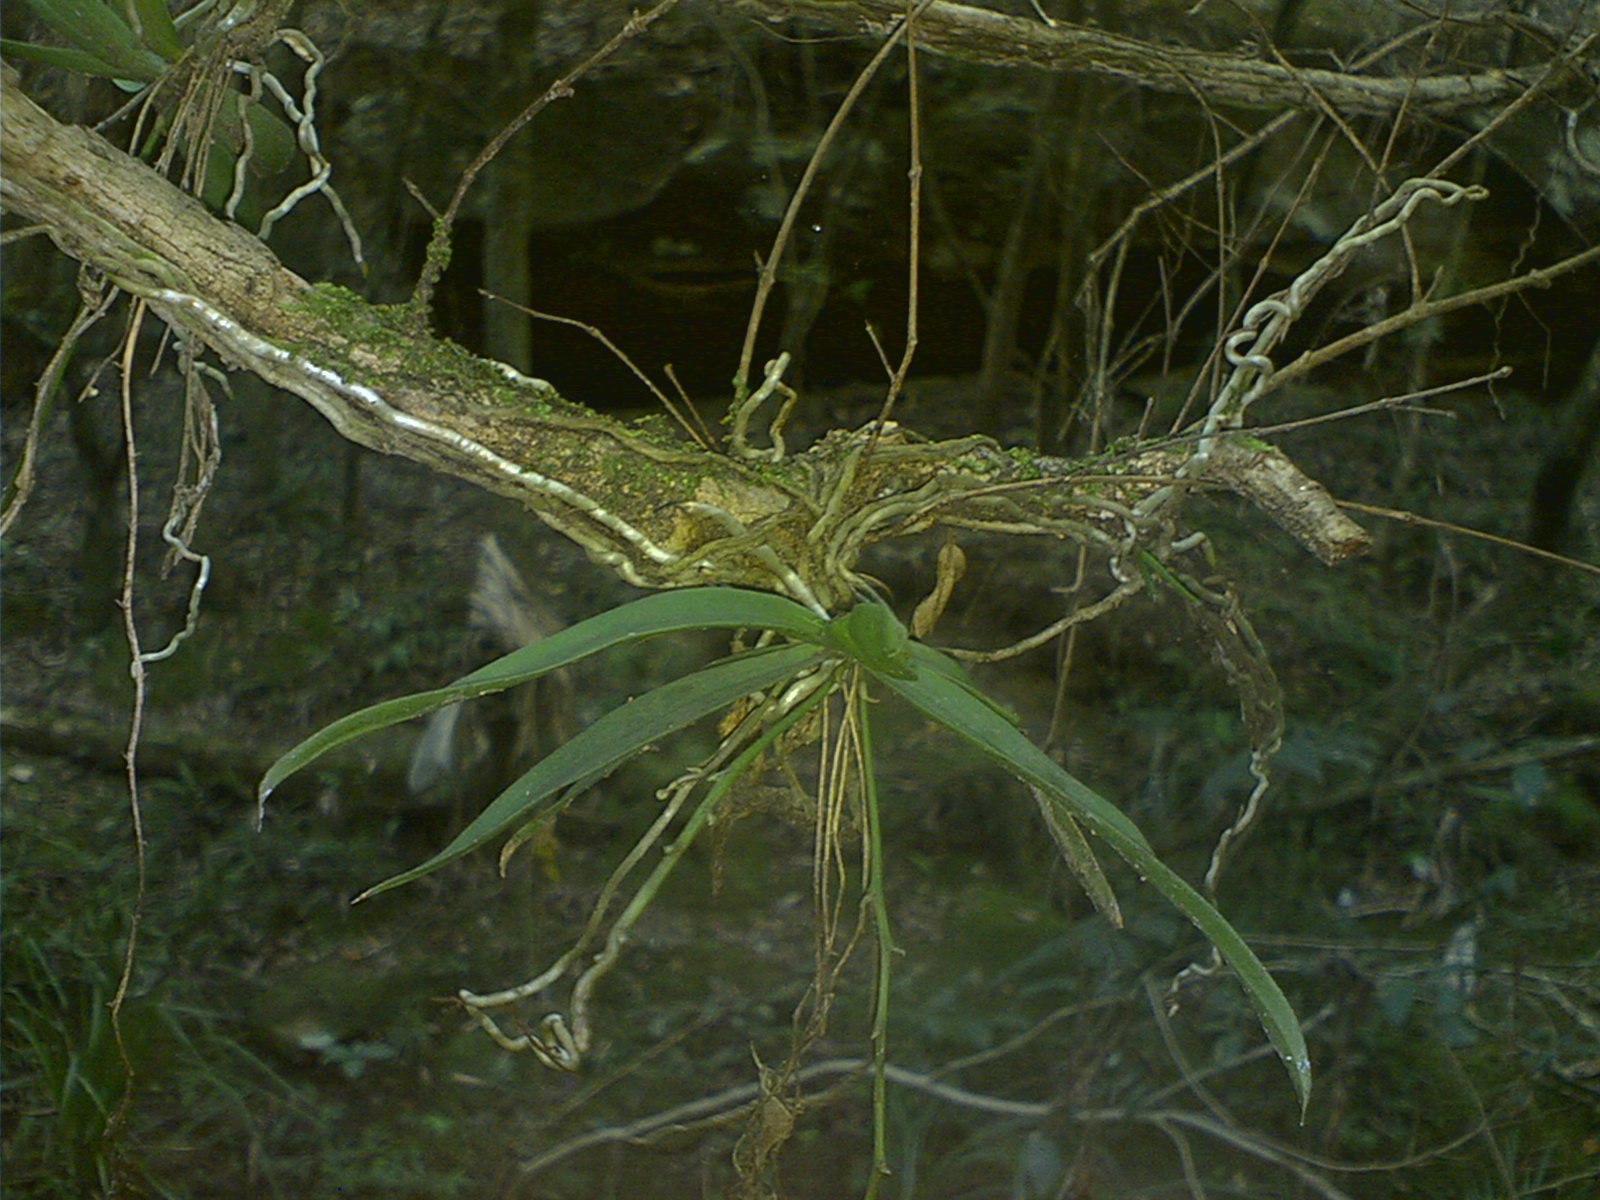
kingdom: Plantae
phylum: Tracheophyta
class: Liliopsida
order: Asparagales
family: Orchidaceae
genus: Sarcochilus
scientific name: Sarcochilus australis
